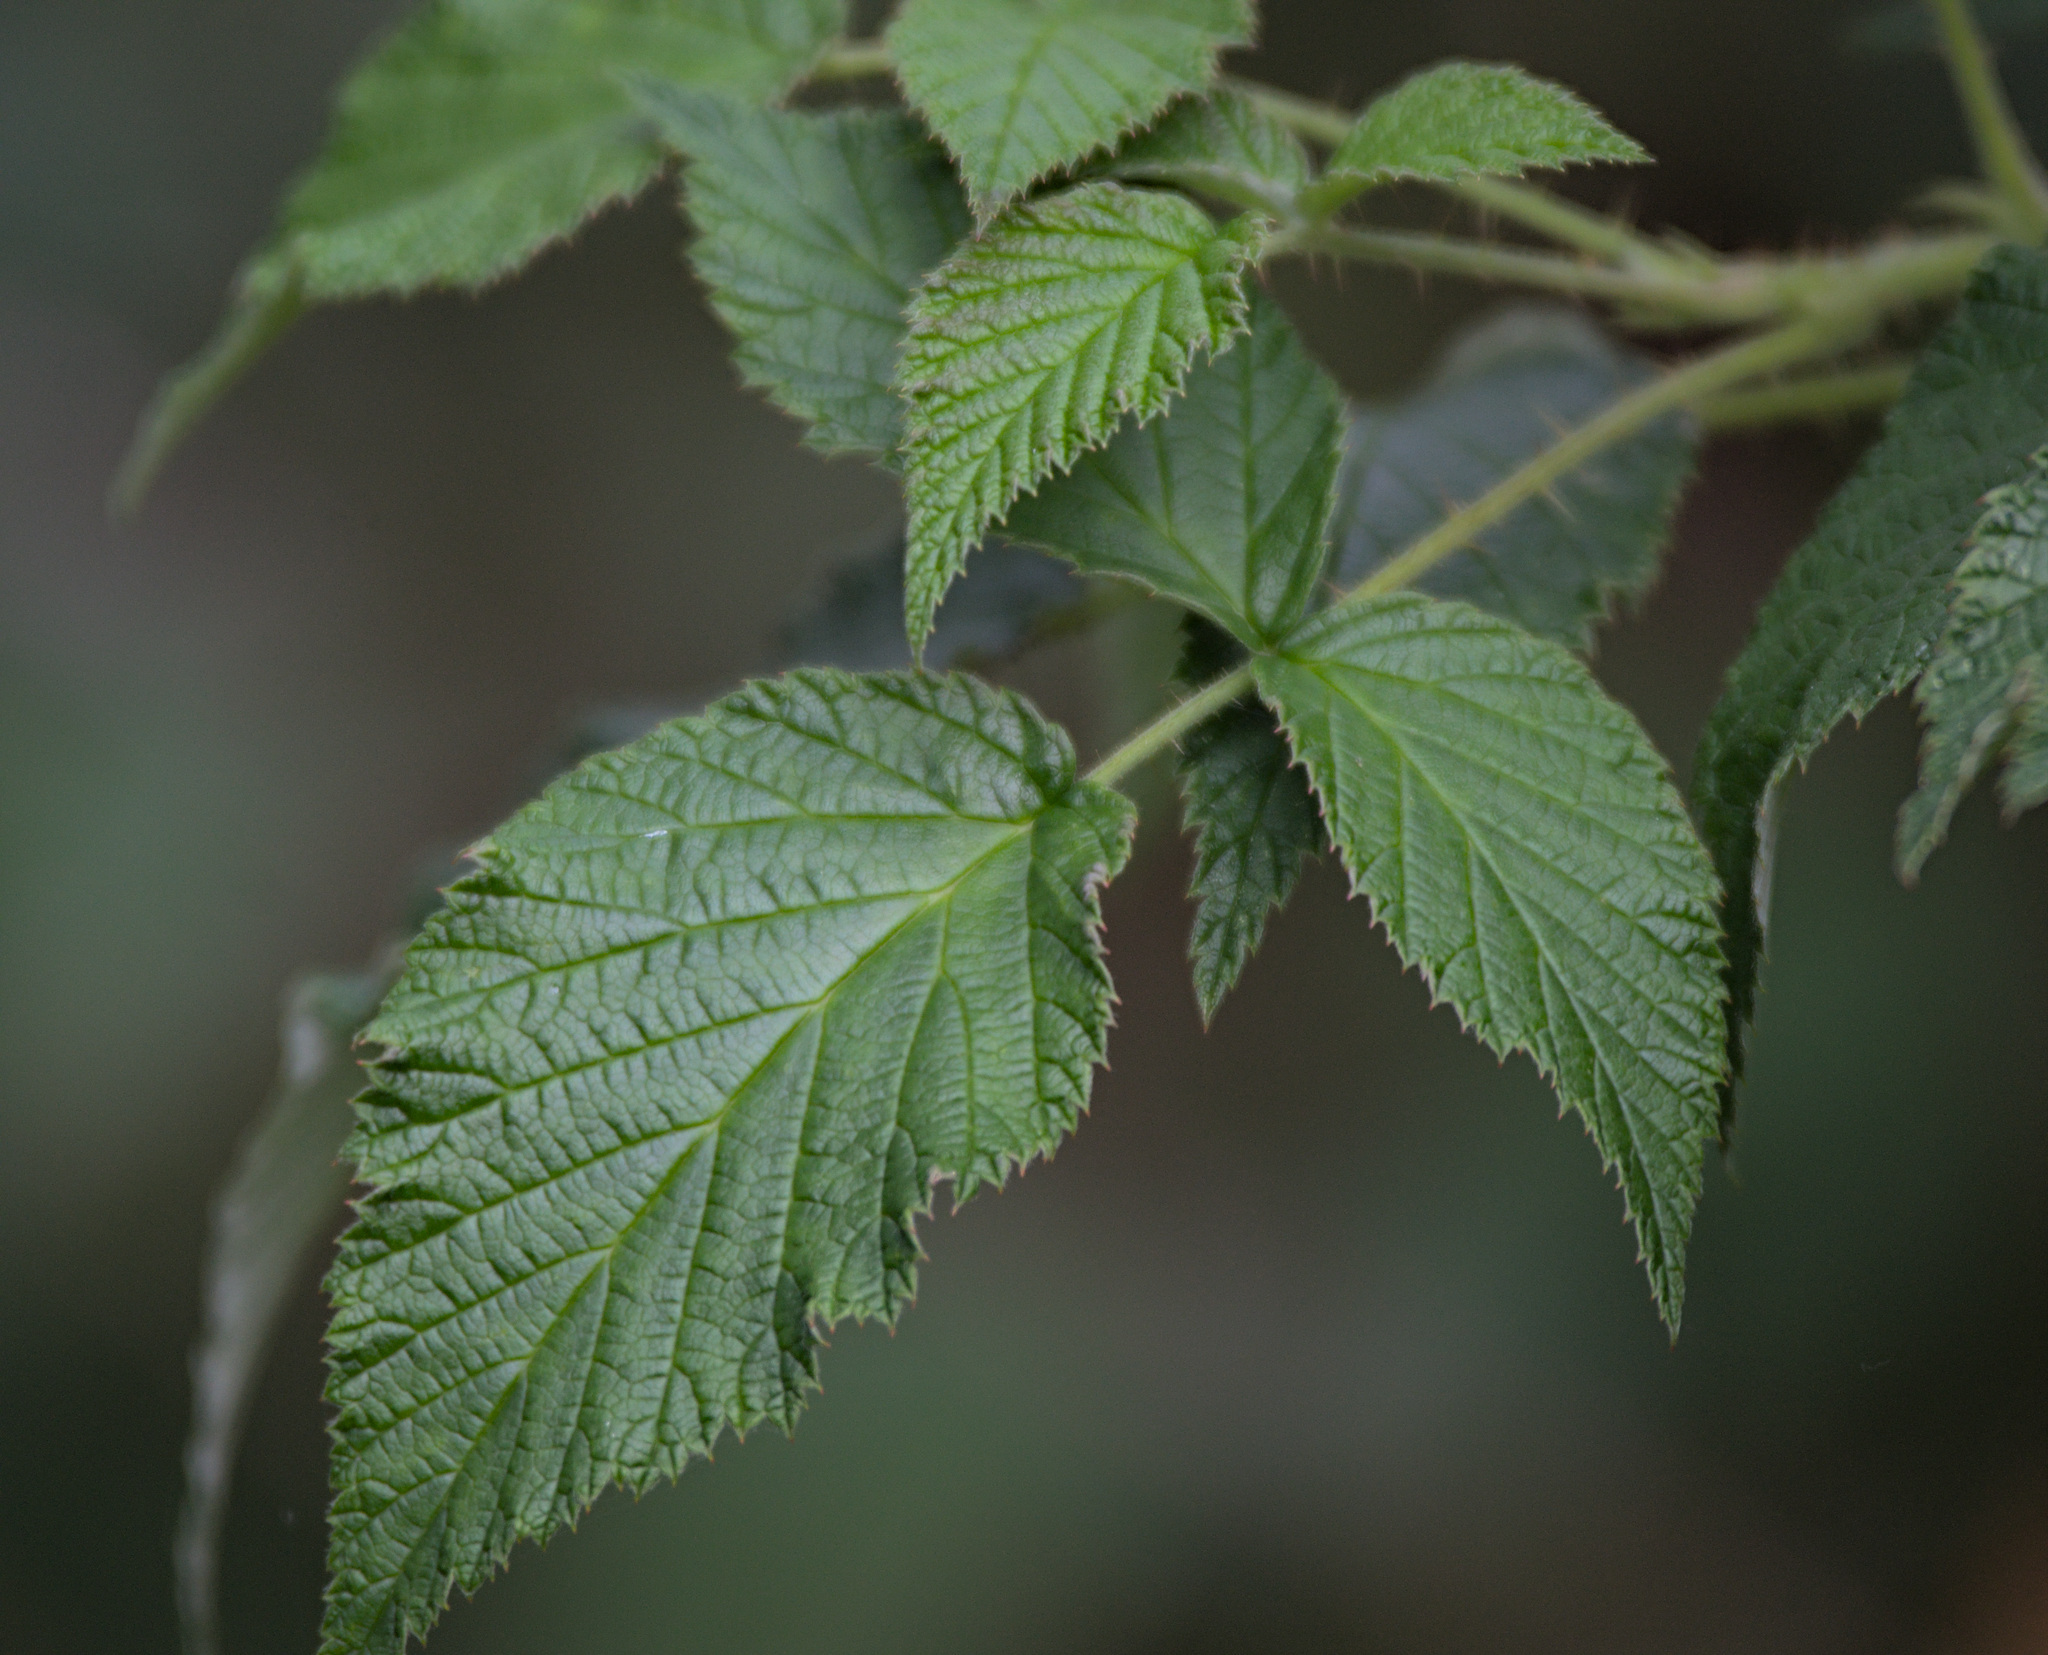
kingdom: Plantae
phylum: Tracheophyta
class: Magnoliopsida
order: Rosales
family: Rosaceae
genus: Rubus
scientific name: Rubus sachalinensis
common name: Red raspberry
